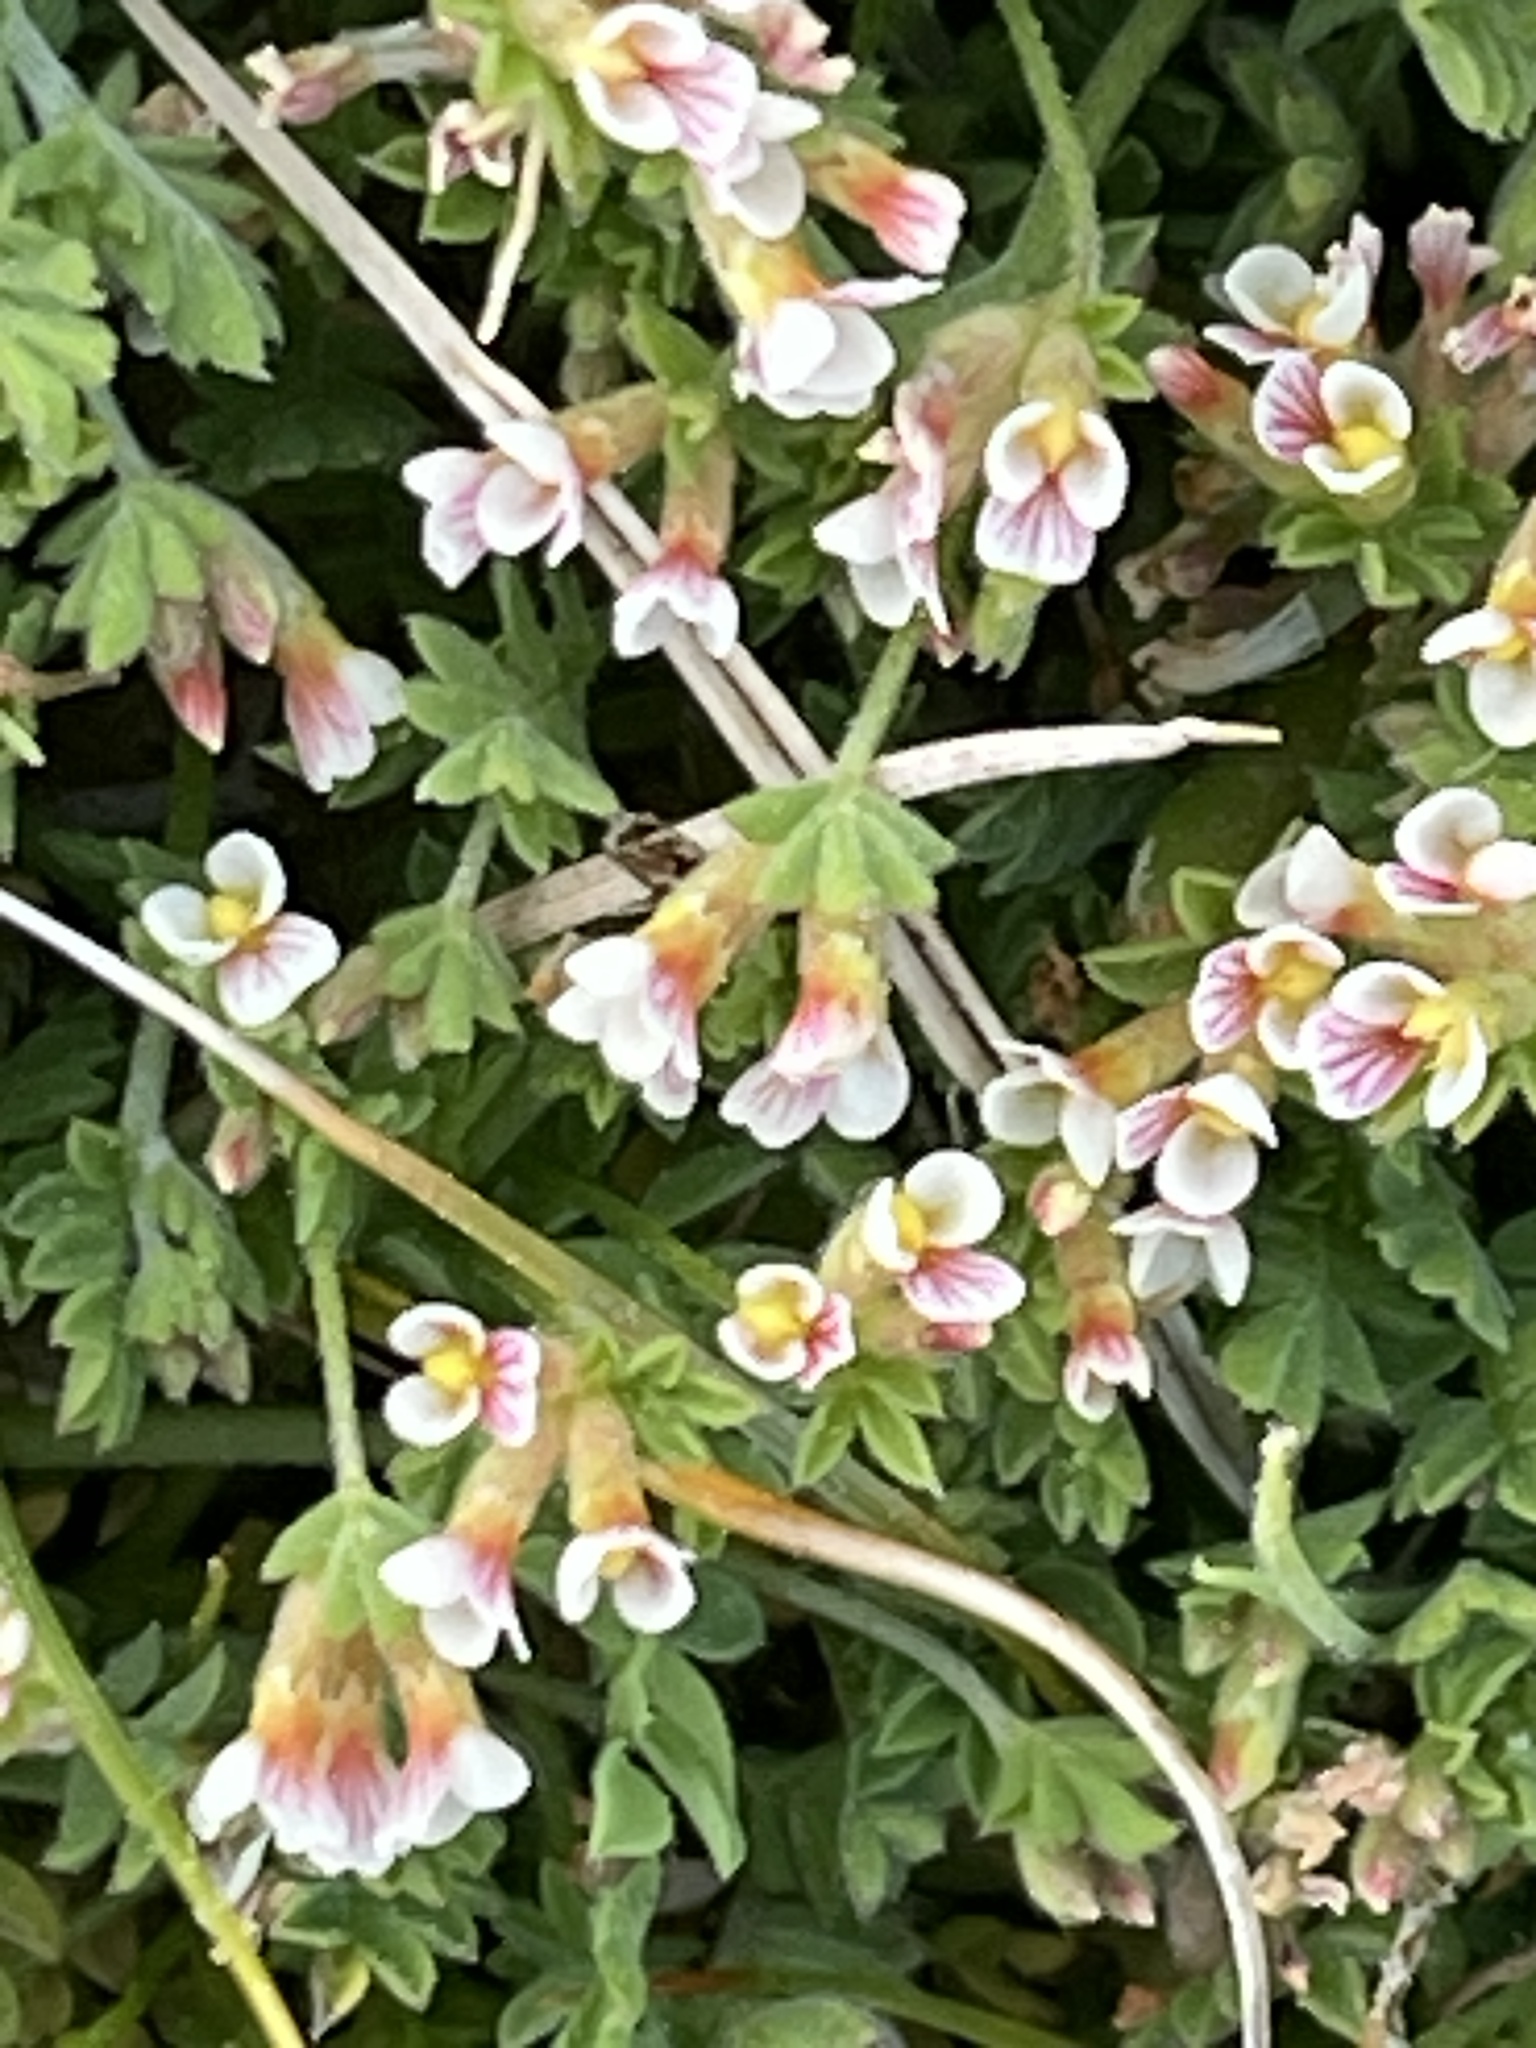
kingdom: Plantae
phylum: Tracheophyta
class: Magnoliopsida
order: Fabales
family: Fabaceae
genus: Ornithopus
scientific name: Ornithopus perpusillus
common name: Bird's-foot
